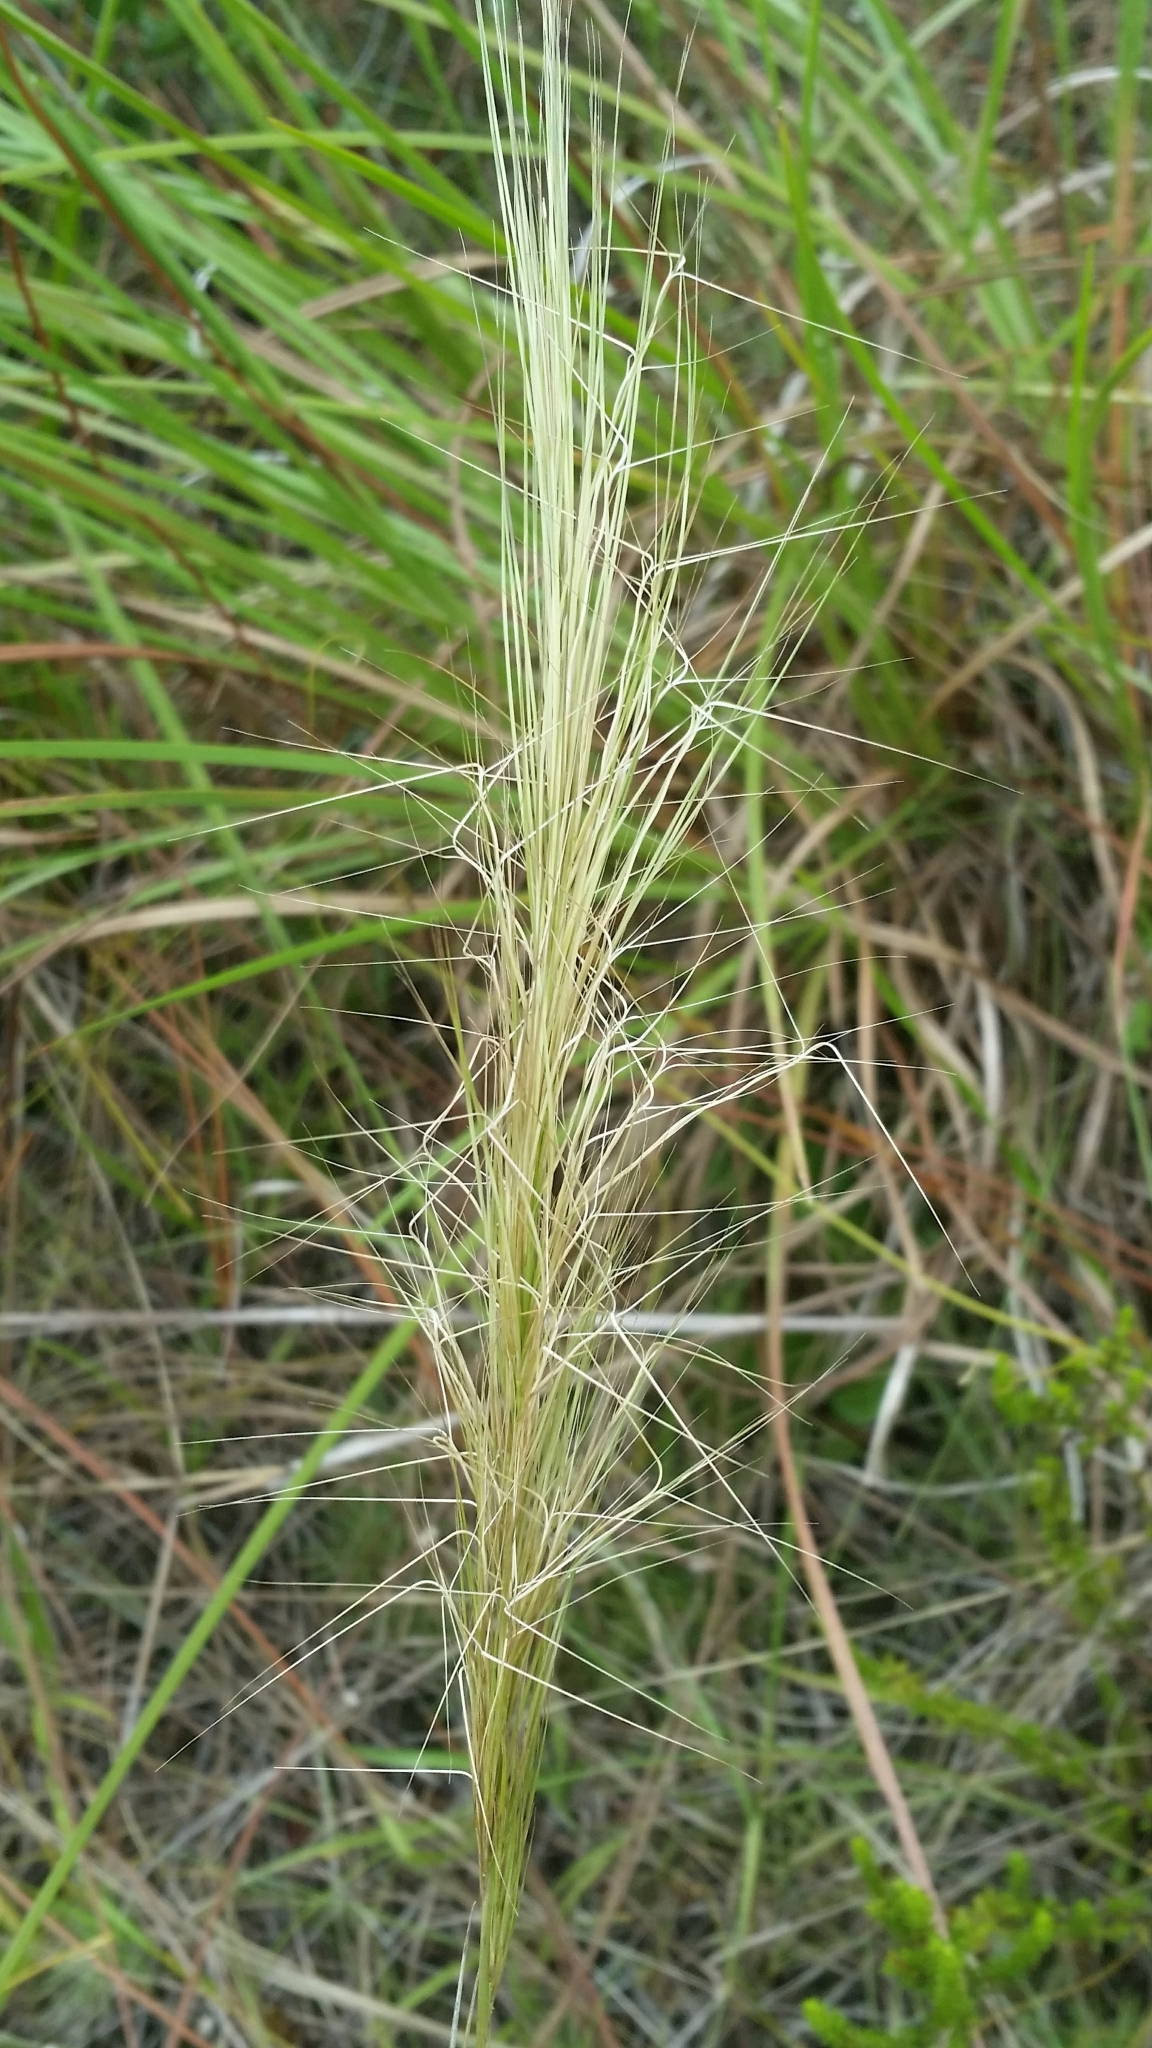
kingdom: Plantae
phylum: Tracheophyta
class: Liliopsida
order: Poales
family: Poaceae
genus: Aristida
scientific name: Aristida spiciformis
